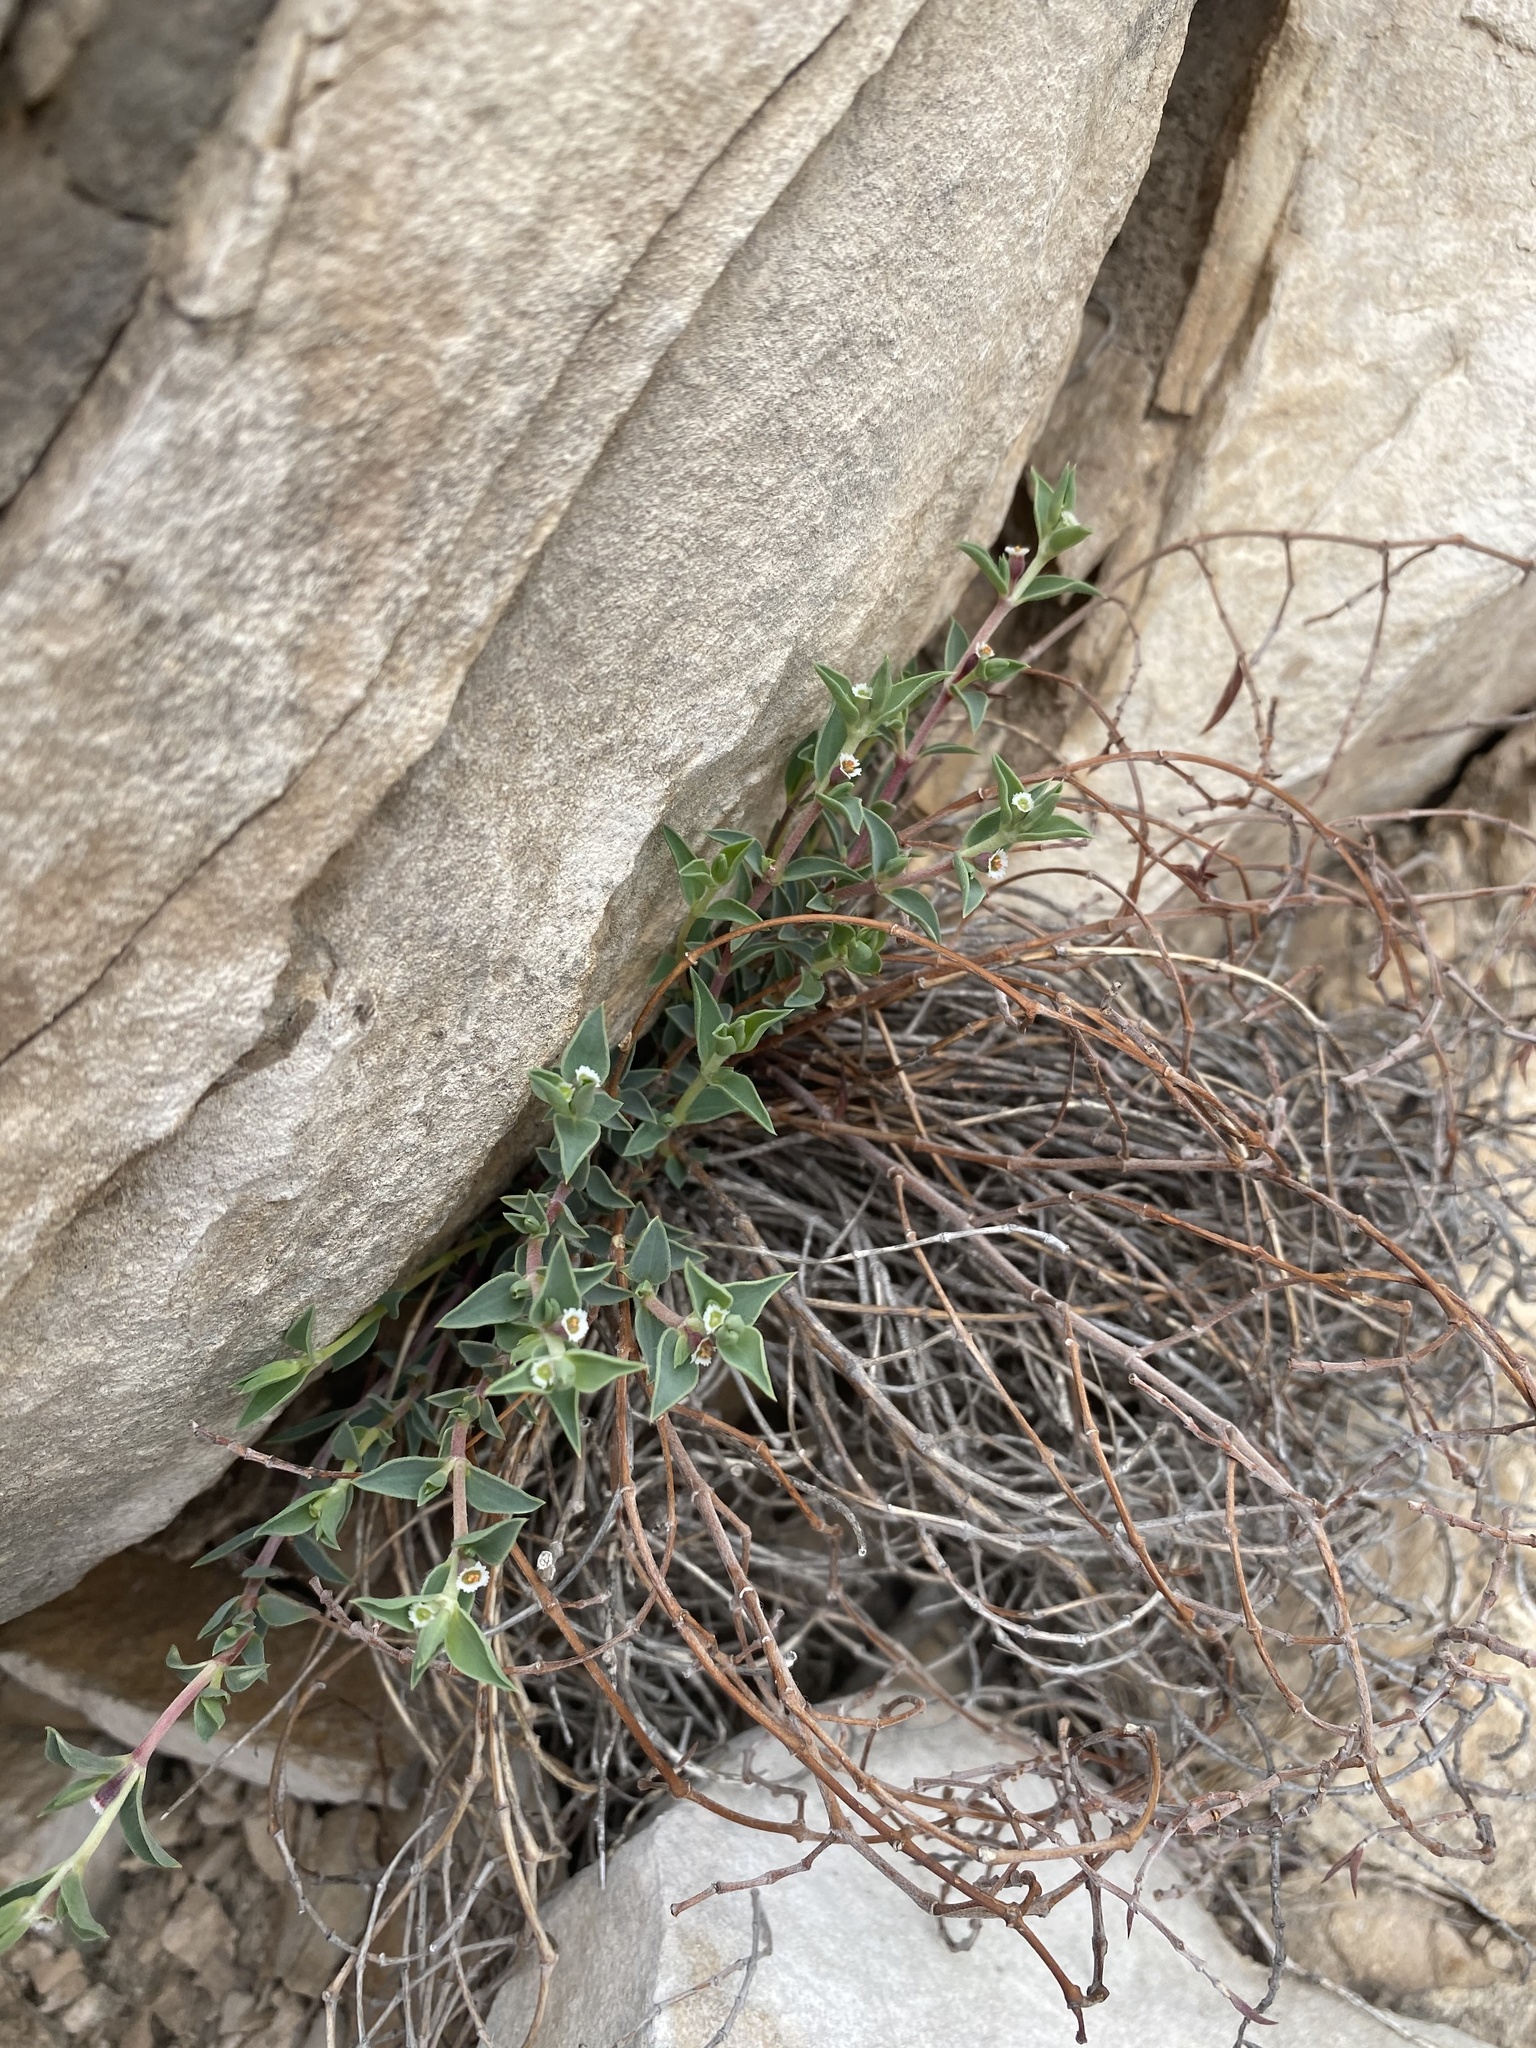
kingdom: Plantae
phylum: Tracheophyta
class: Magnoliopsida
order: Malpighiales
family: Euphorbiaceae
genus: Euphorbia
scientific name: Euphorbia acuta
